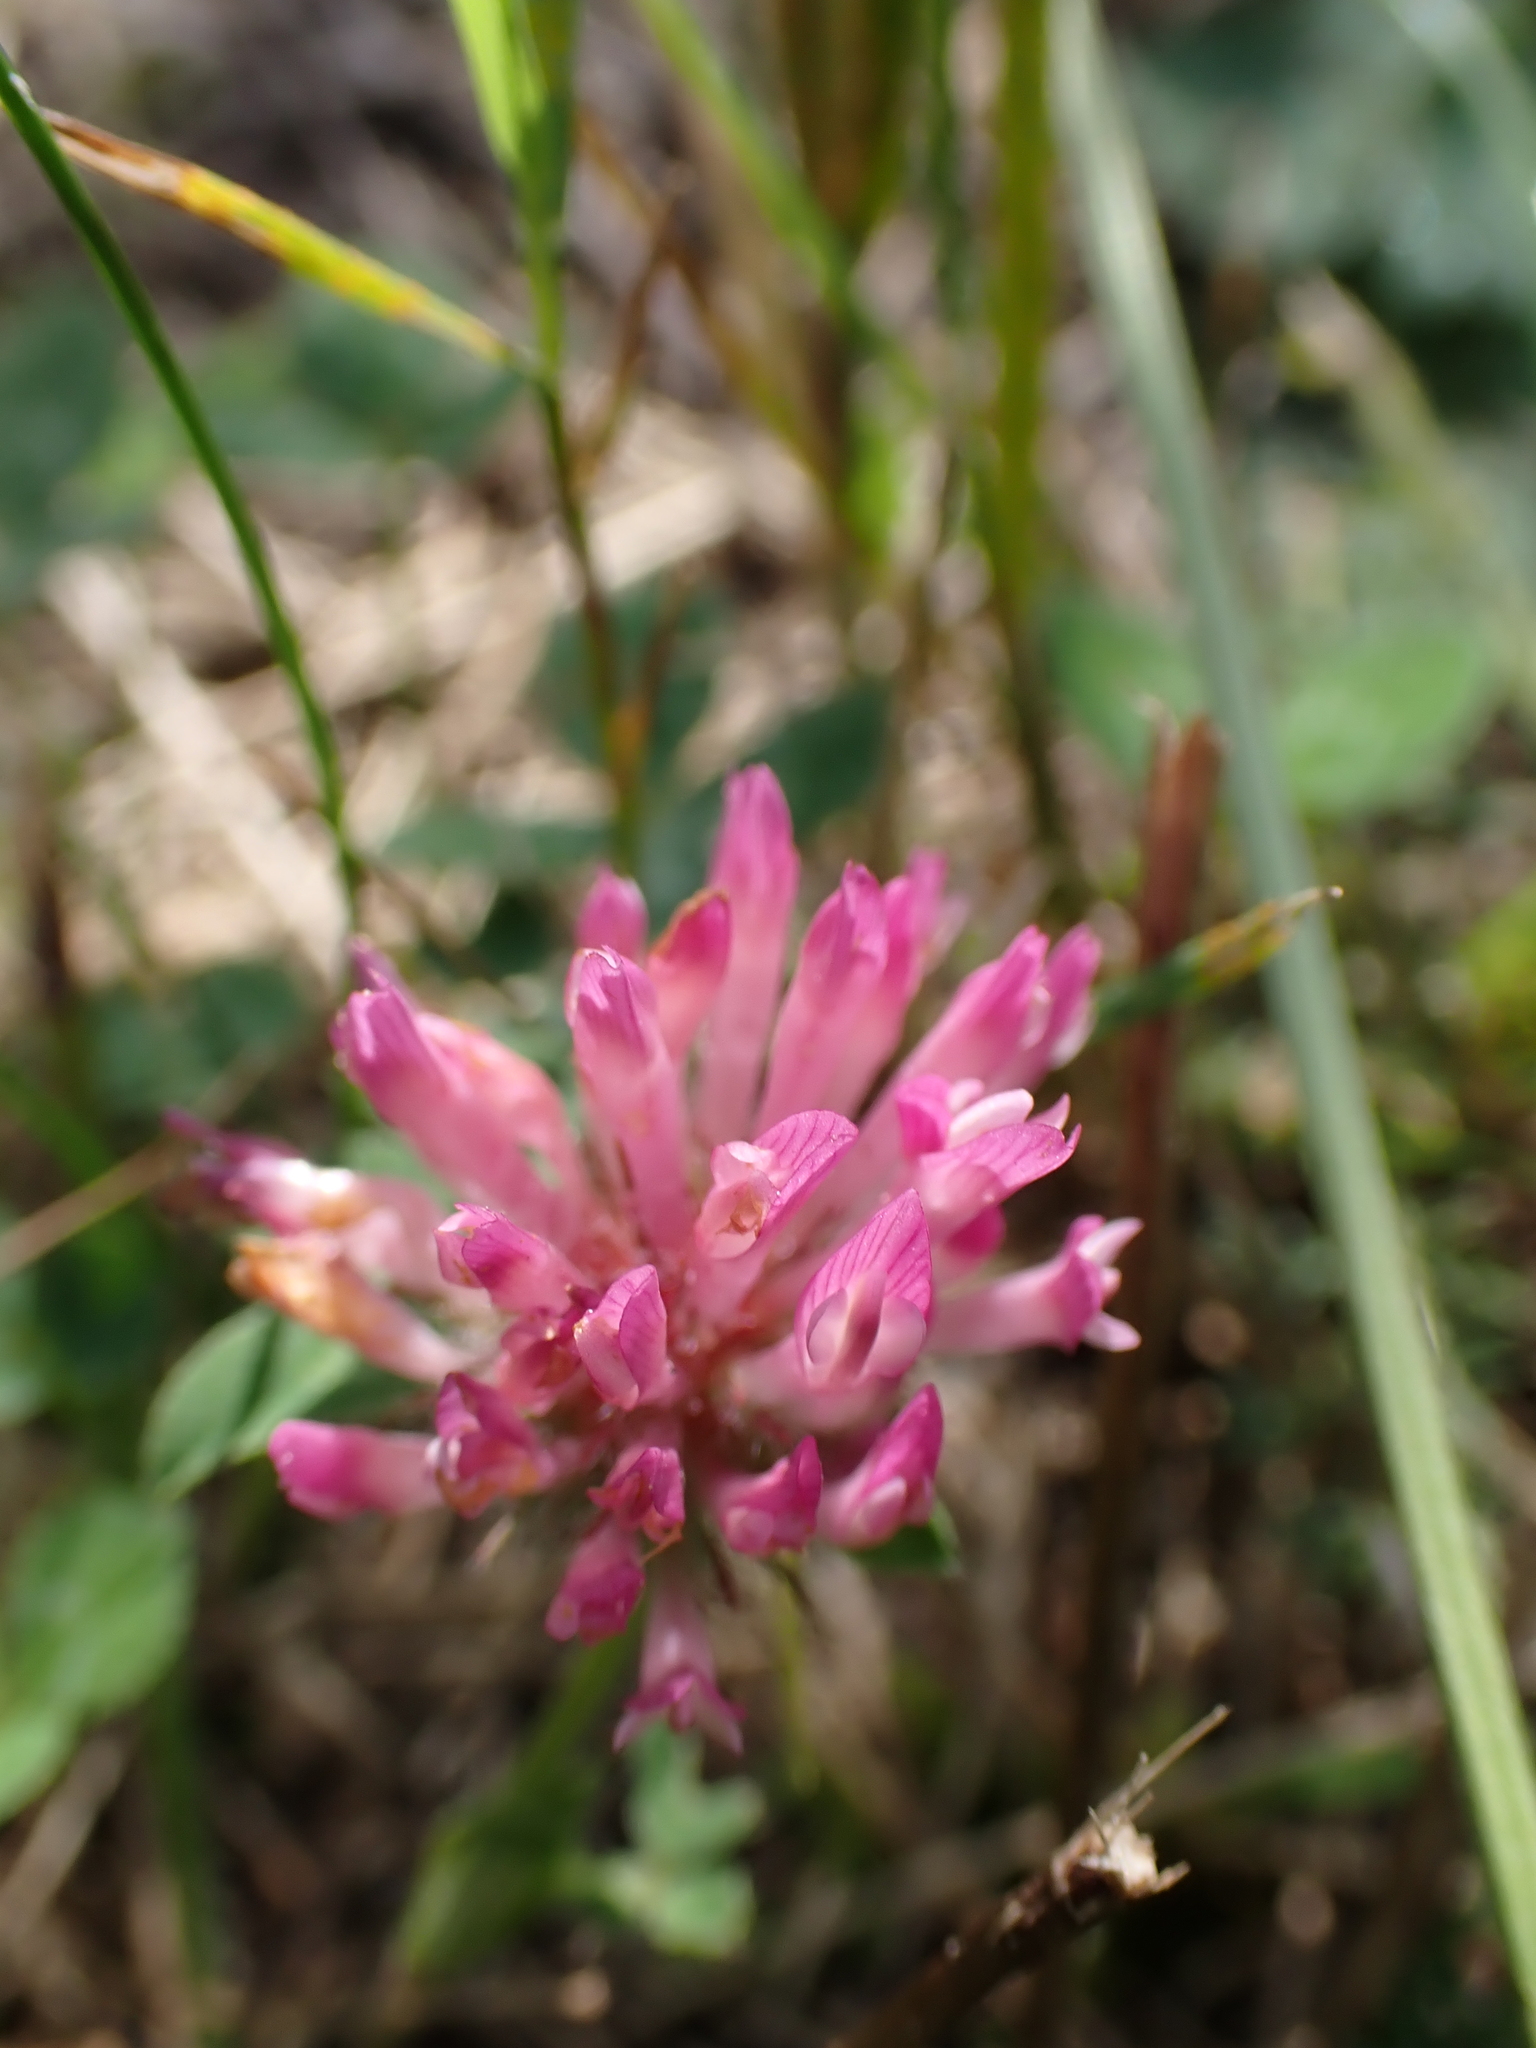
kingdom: Plantae
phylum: Tracheophyta
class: Magnoliopsida
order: Fabales
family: Fabaceae
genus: Trifolium
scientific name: Trifolium pratense
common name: Red clover
